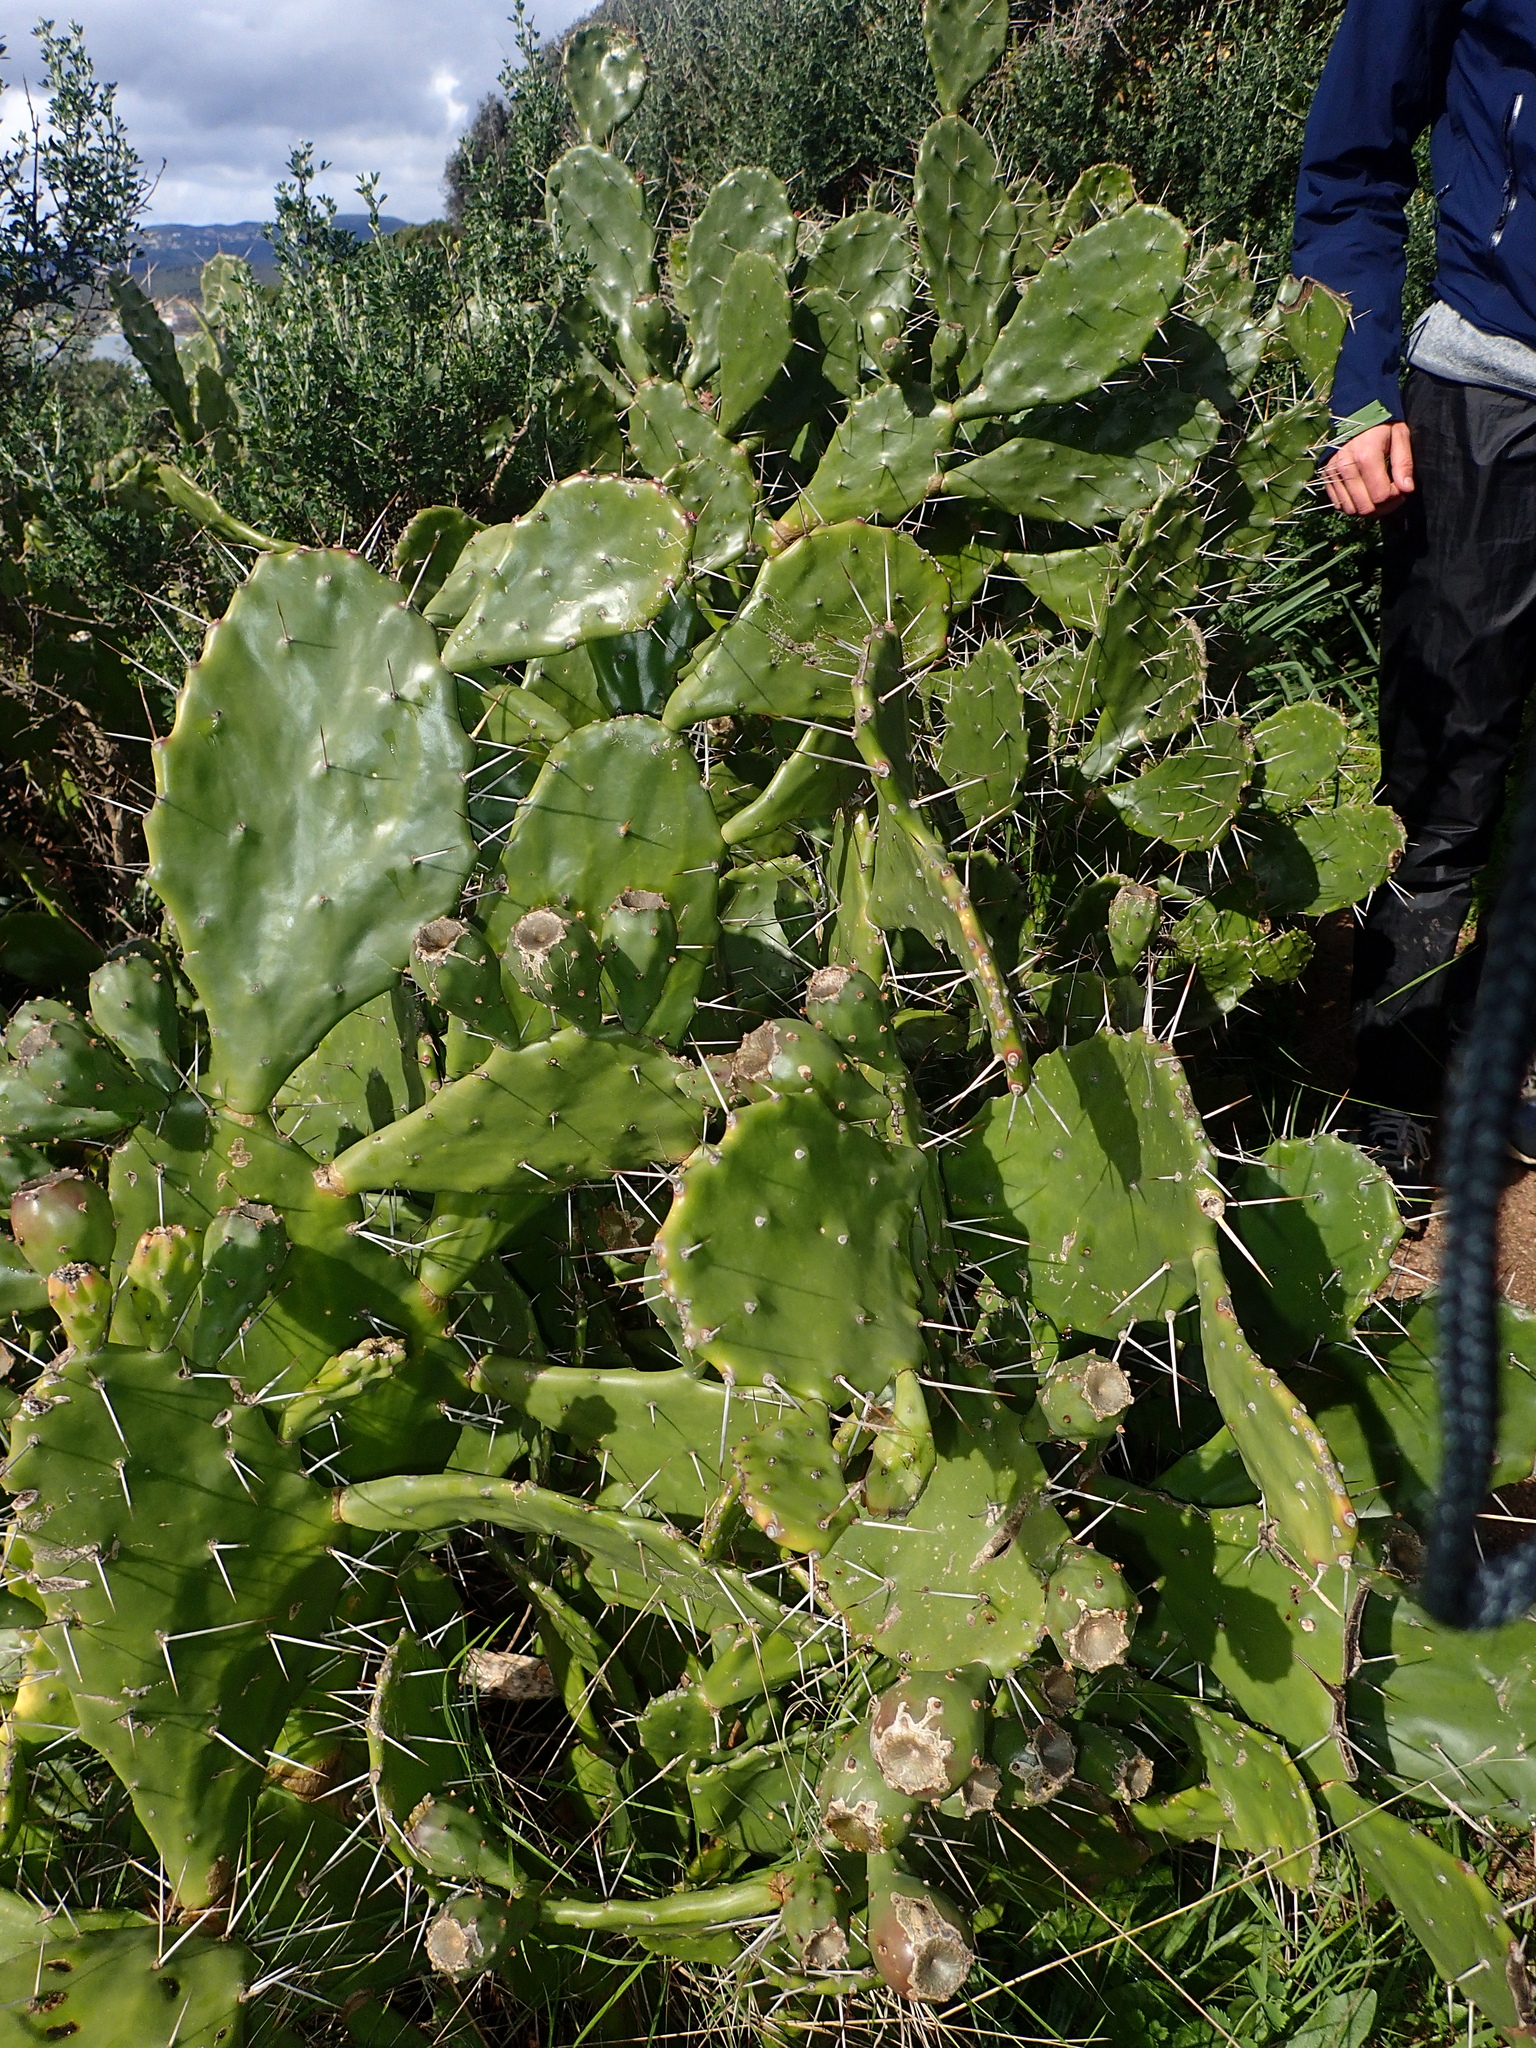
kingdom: Plantae
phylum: Tracheophyta
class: Magnoliopsida
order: Caryophyllales
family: Cactaceae
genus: Opuntia
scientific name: Opuntia monacantha
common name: Common pricklypear
